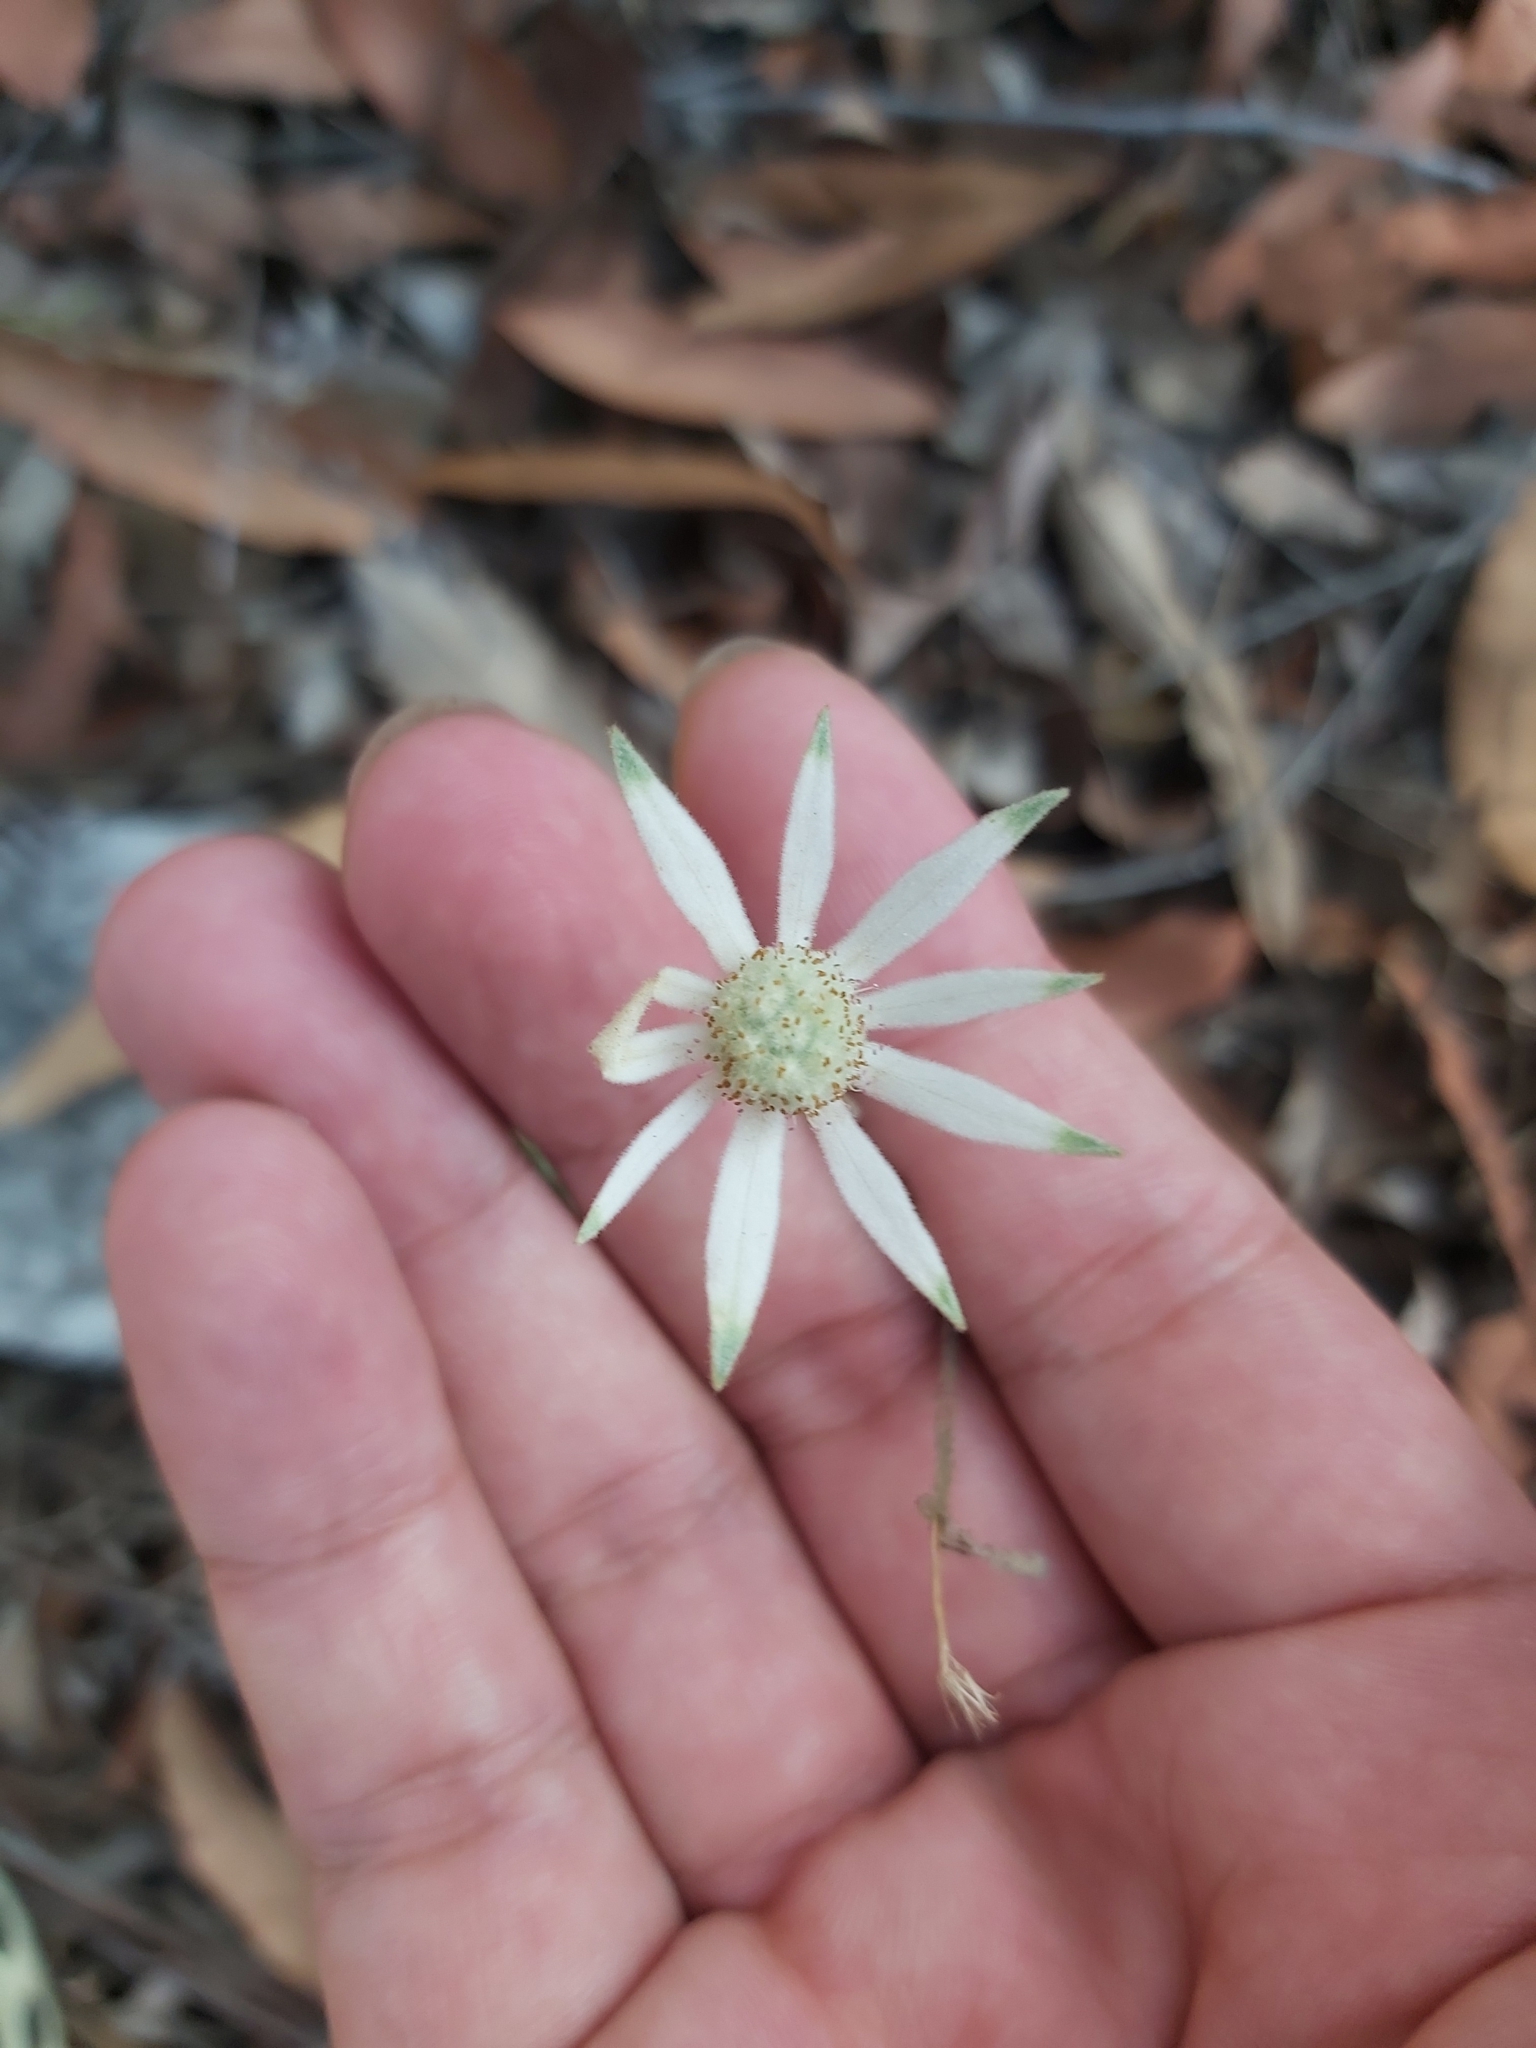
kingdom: Plantae
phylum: Tracheophyta
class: Magnoliopsida
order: Apiales
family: Apiaceae
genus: Actinotus
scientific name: Actinotus helianthi
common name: Flannel-flower
